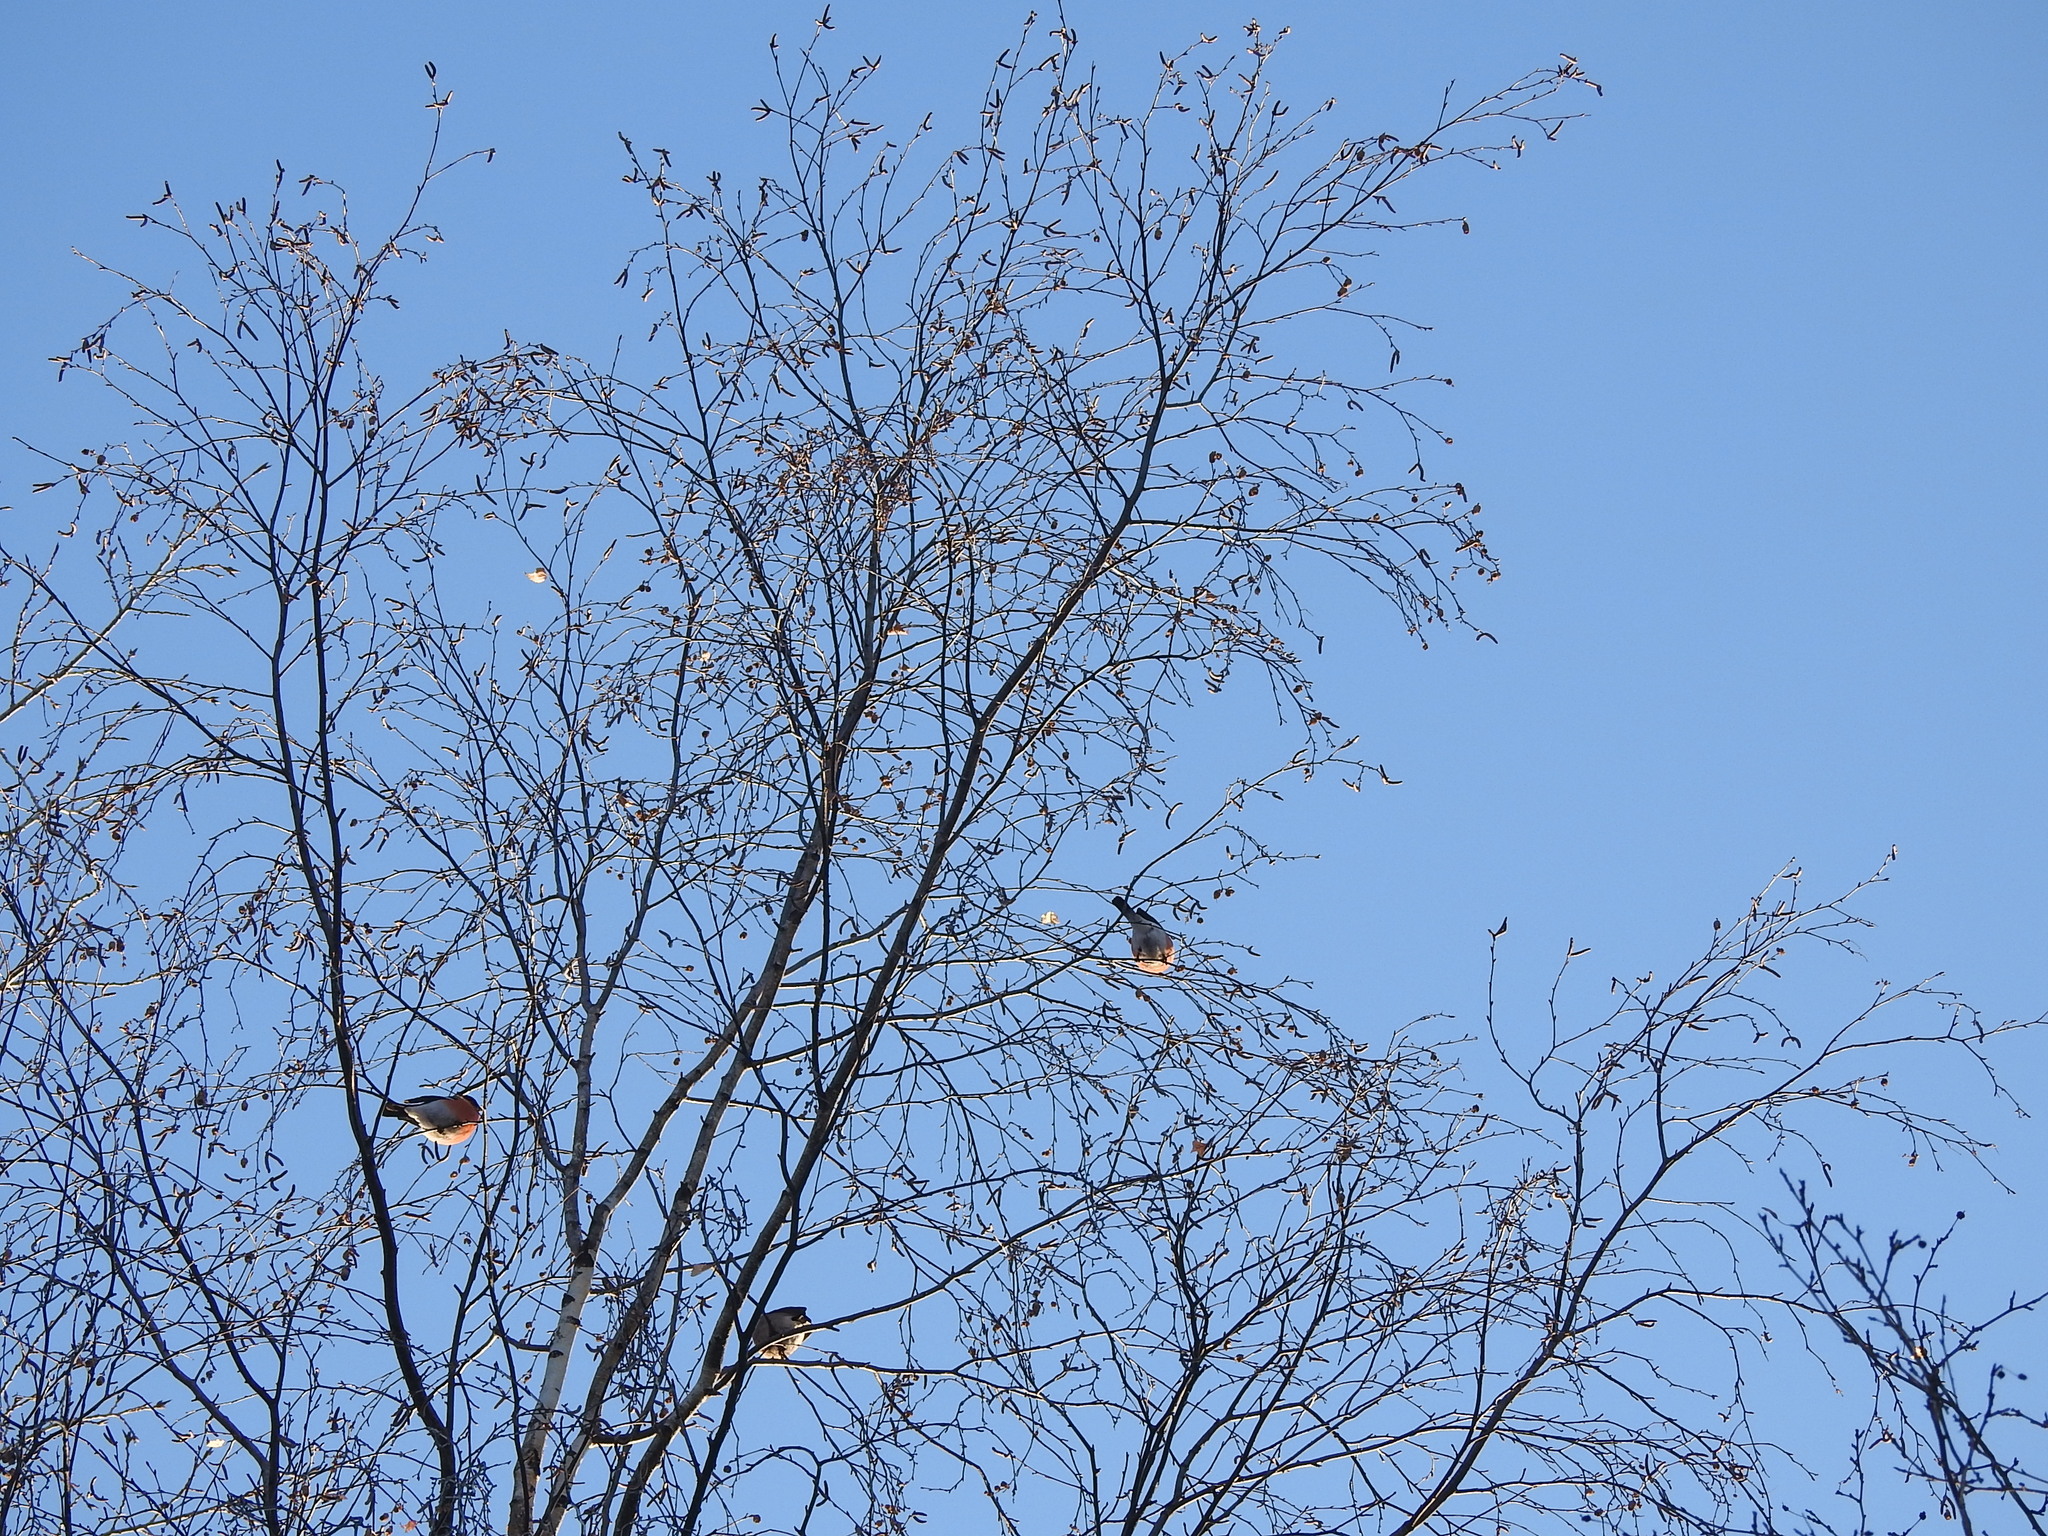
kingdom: Animalia
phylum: Chordata
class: Aves
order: Passeriformes
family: Fringillidae
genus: Pyrrhula
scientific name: Pyrrhula pyrrhula
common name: Eurasian bullfinch
